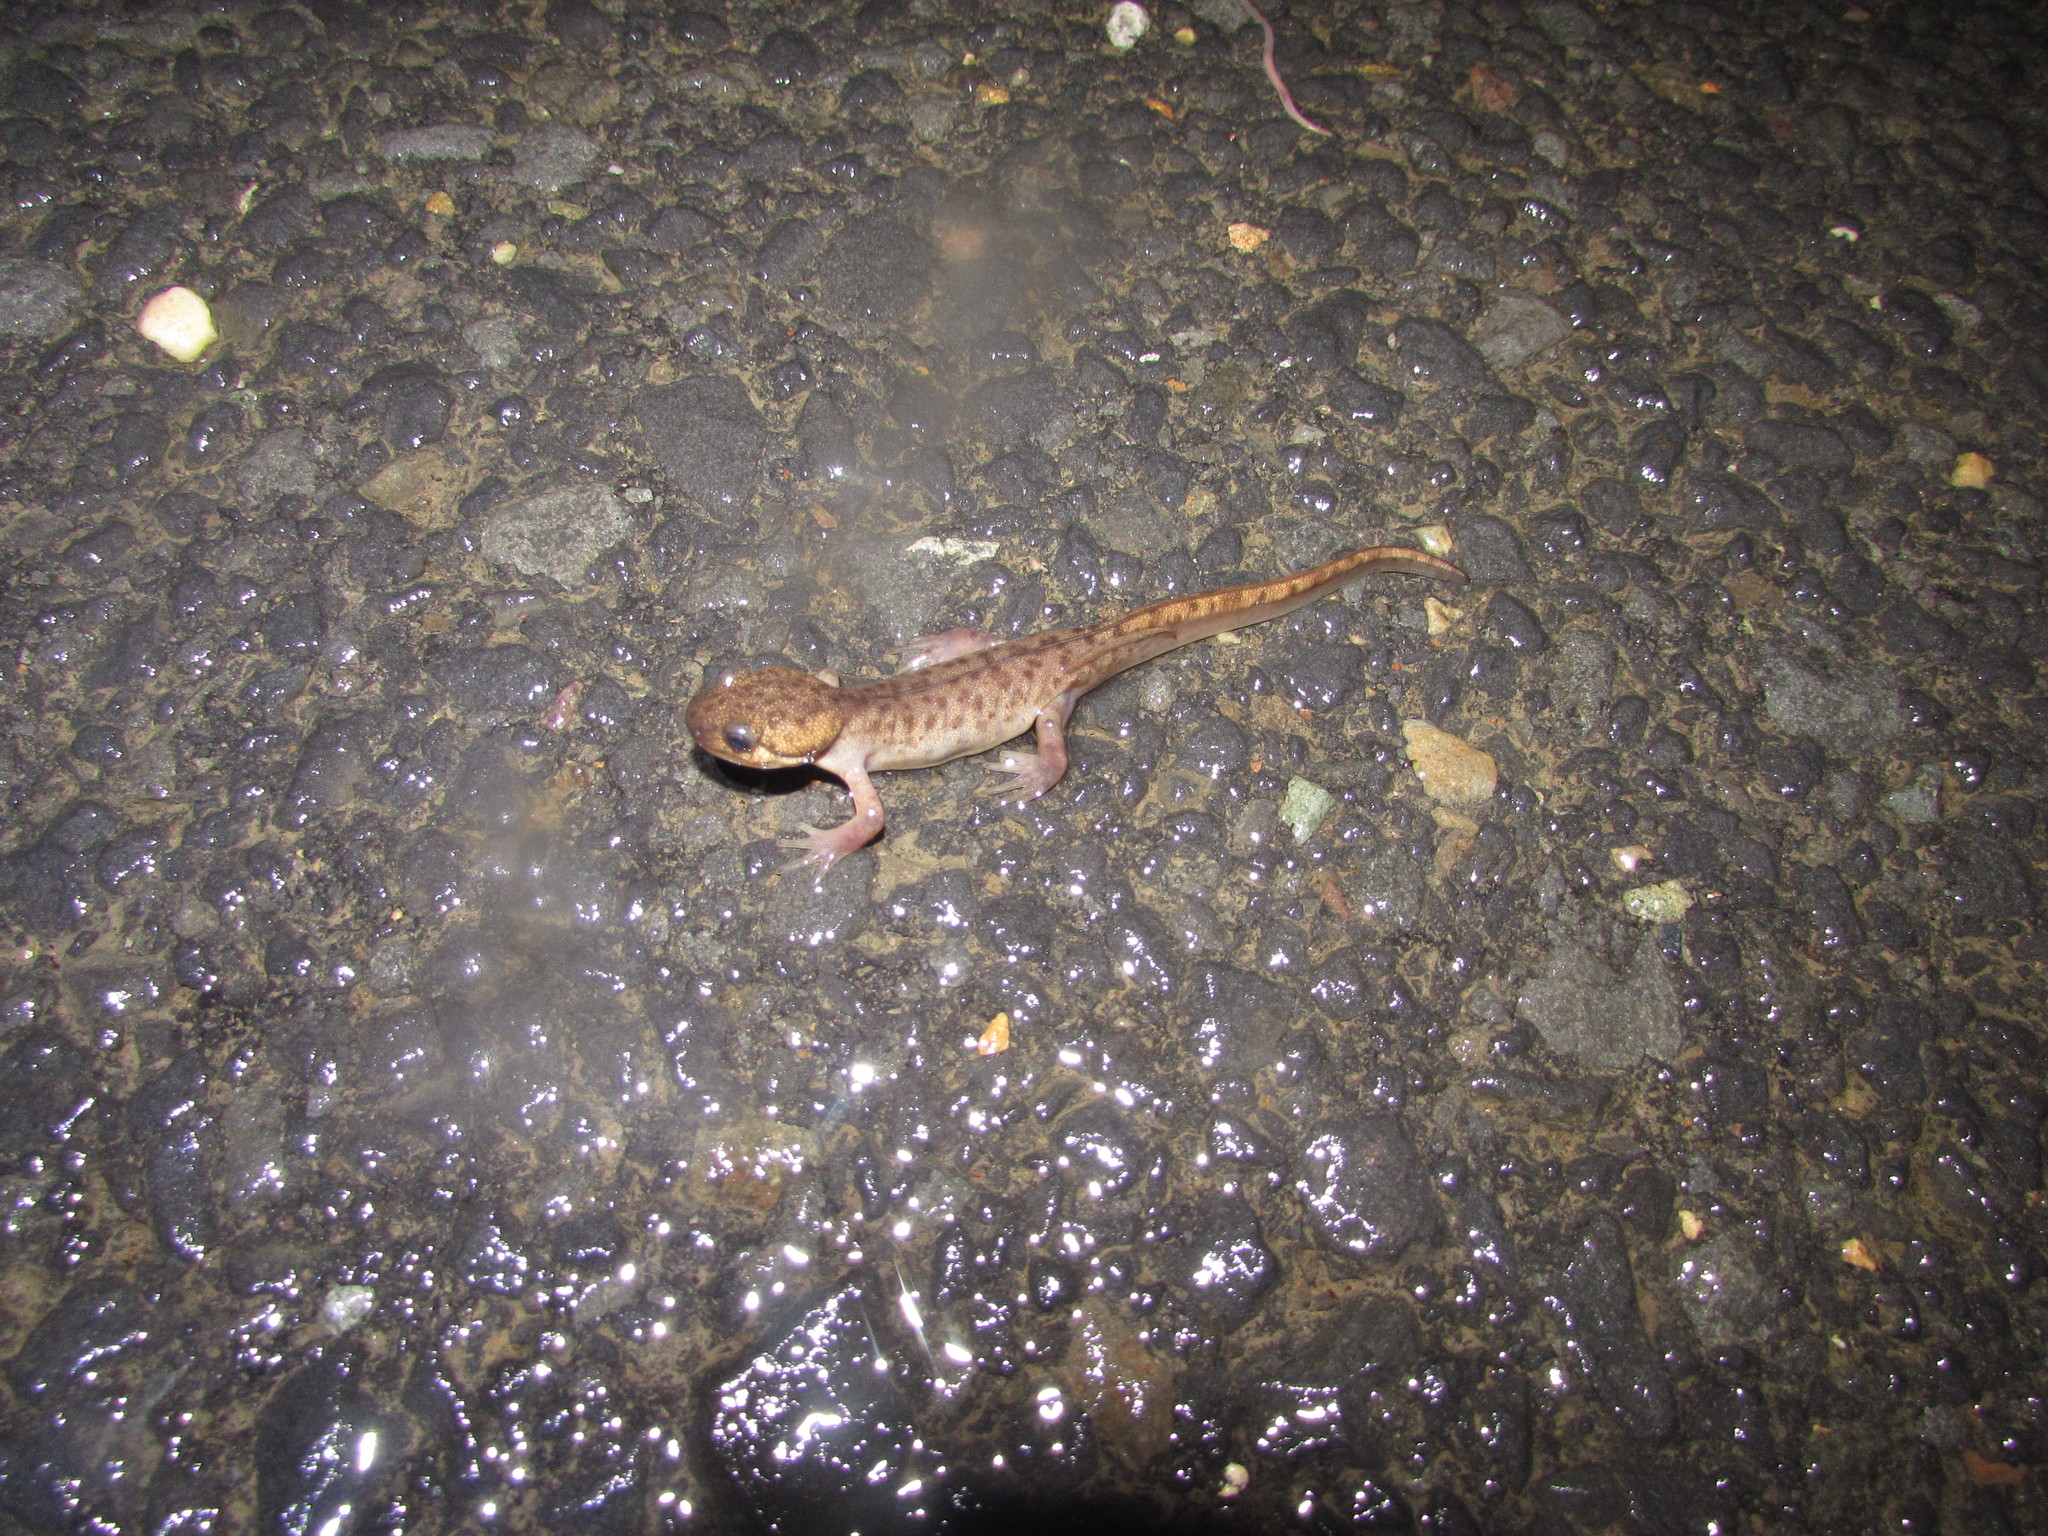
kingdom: Animalia
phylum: Chordata
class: Amphibia
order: Caudata
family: Ambystomatidae
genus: Ambystoma
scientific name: Ambystoma gracile
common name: Northwestern salamander
